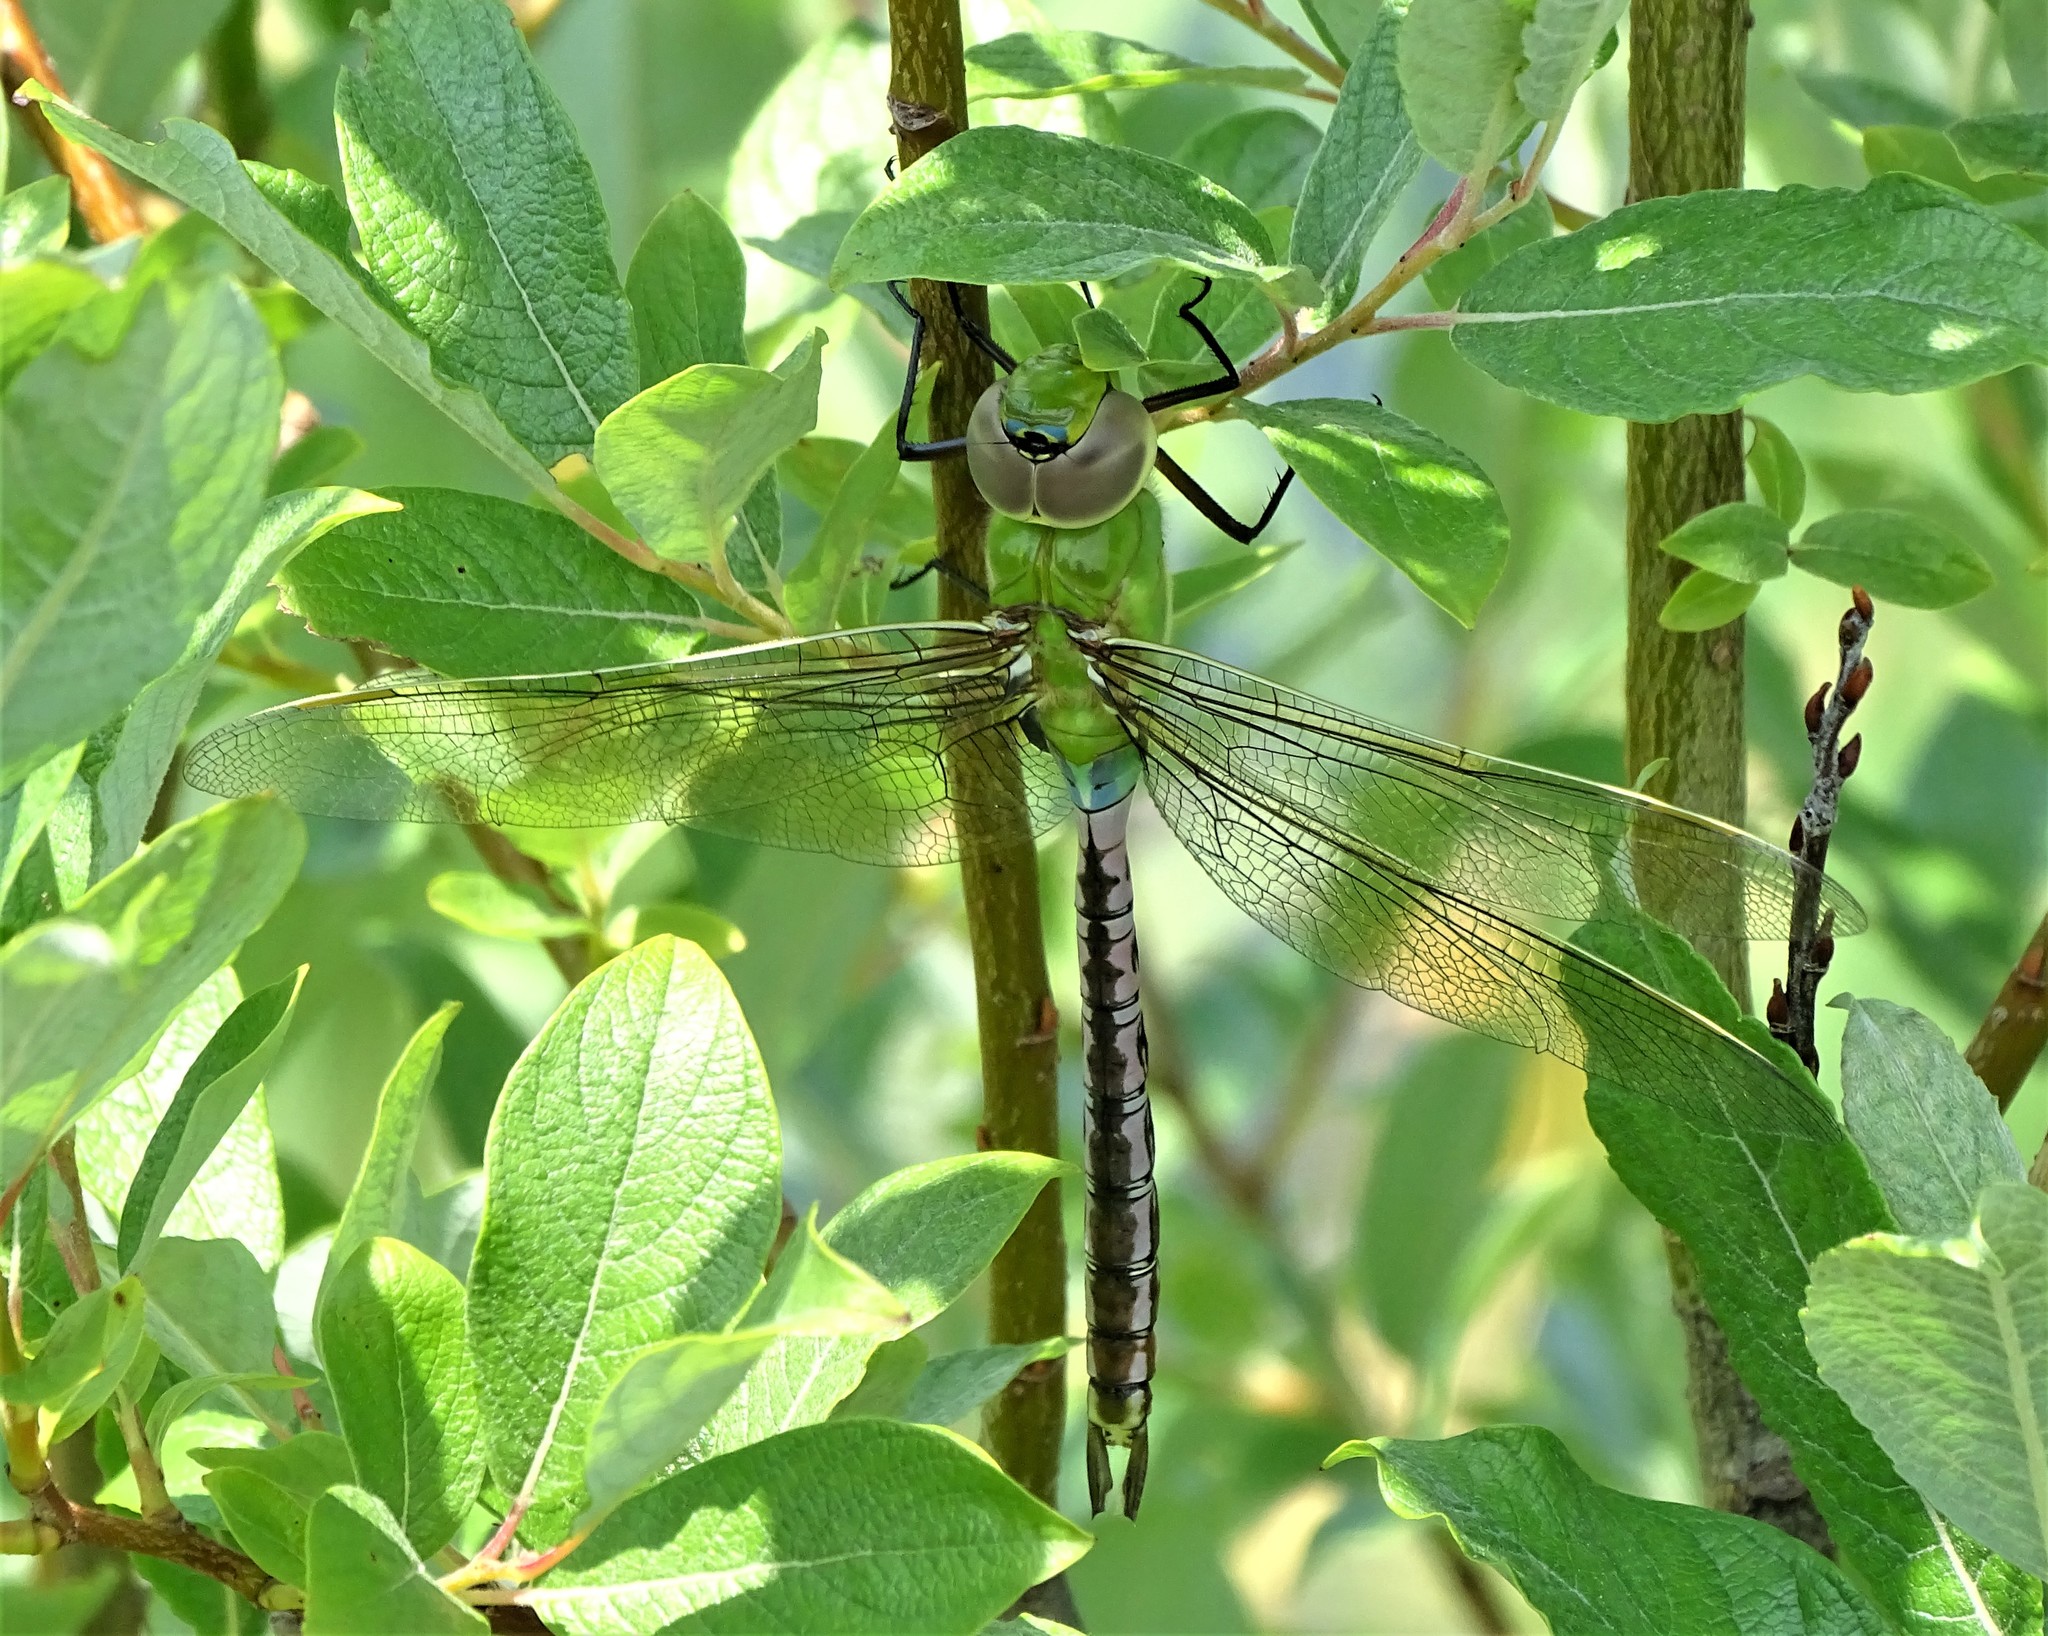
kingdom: Animalia
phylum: Arthropoda
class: Insecta
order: Odonata
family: Aeshnidae
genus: Anax
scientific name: Anax junius
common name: Common green darner
